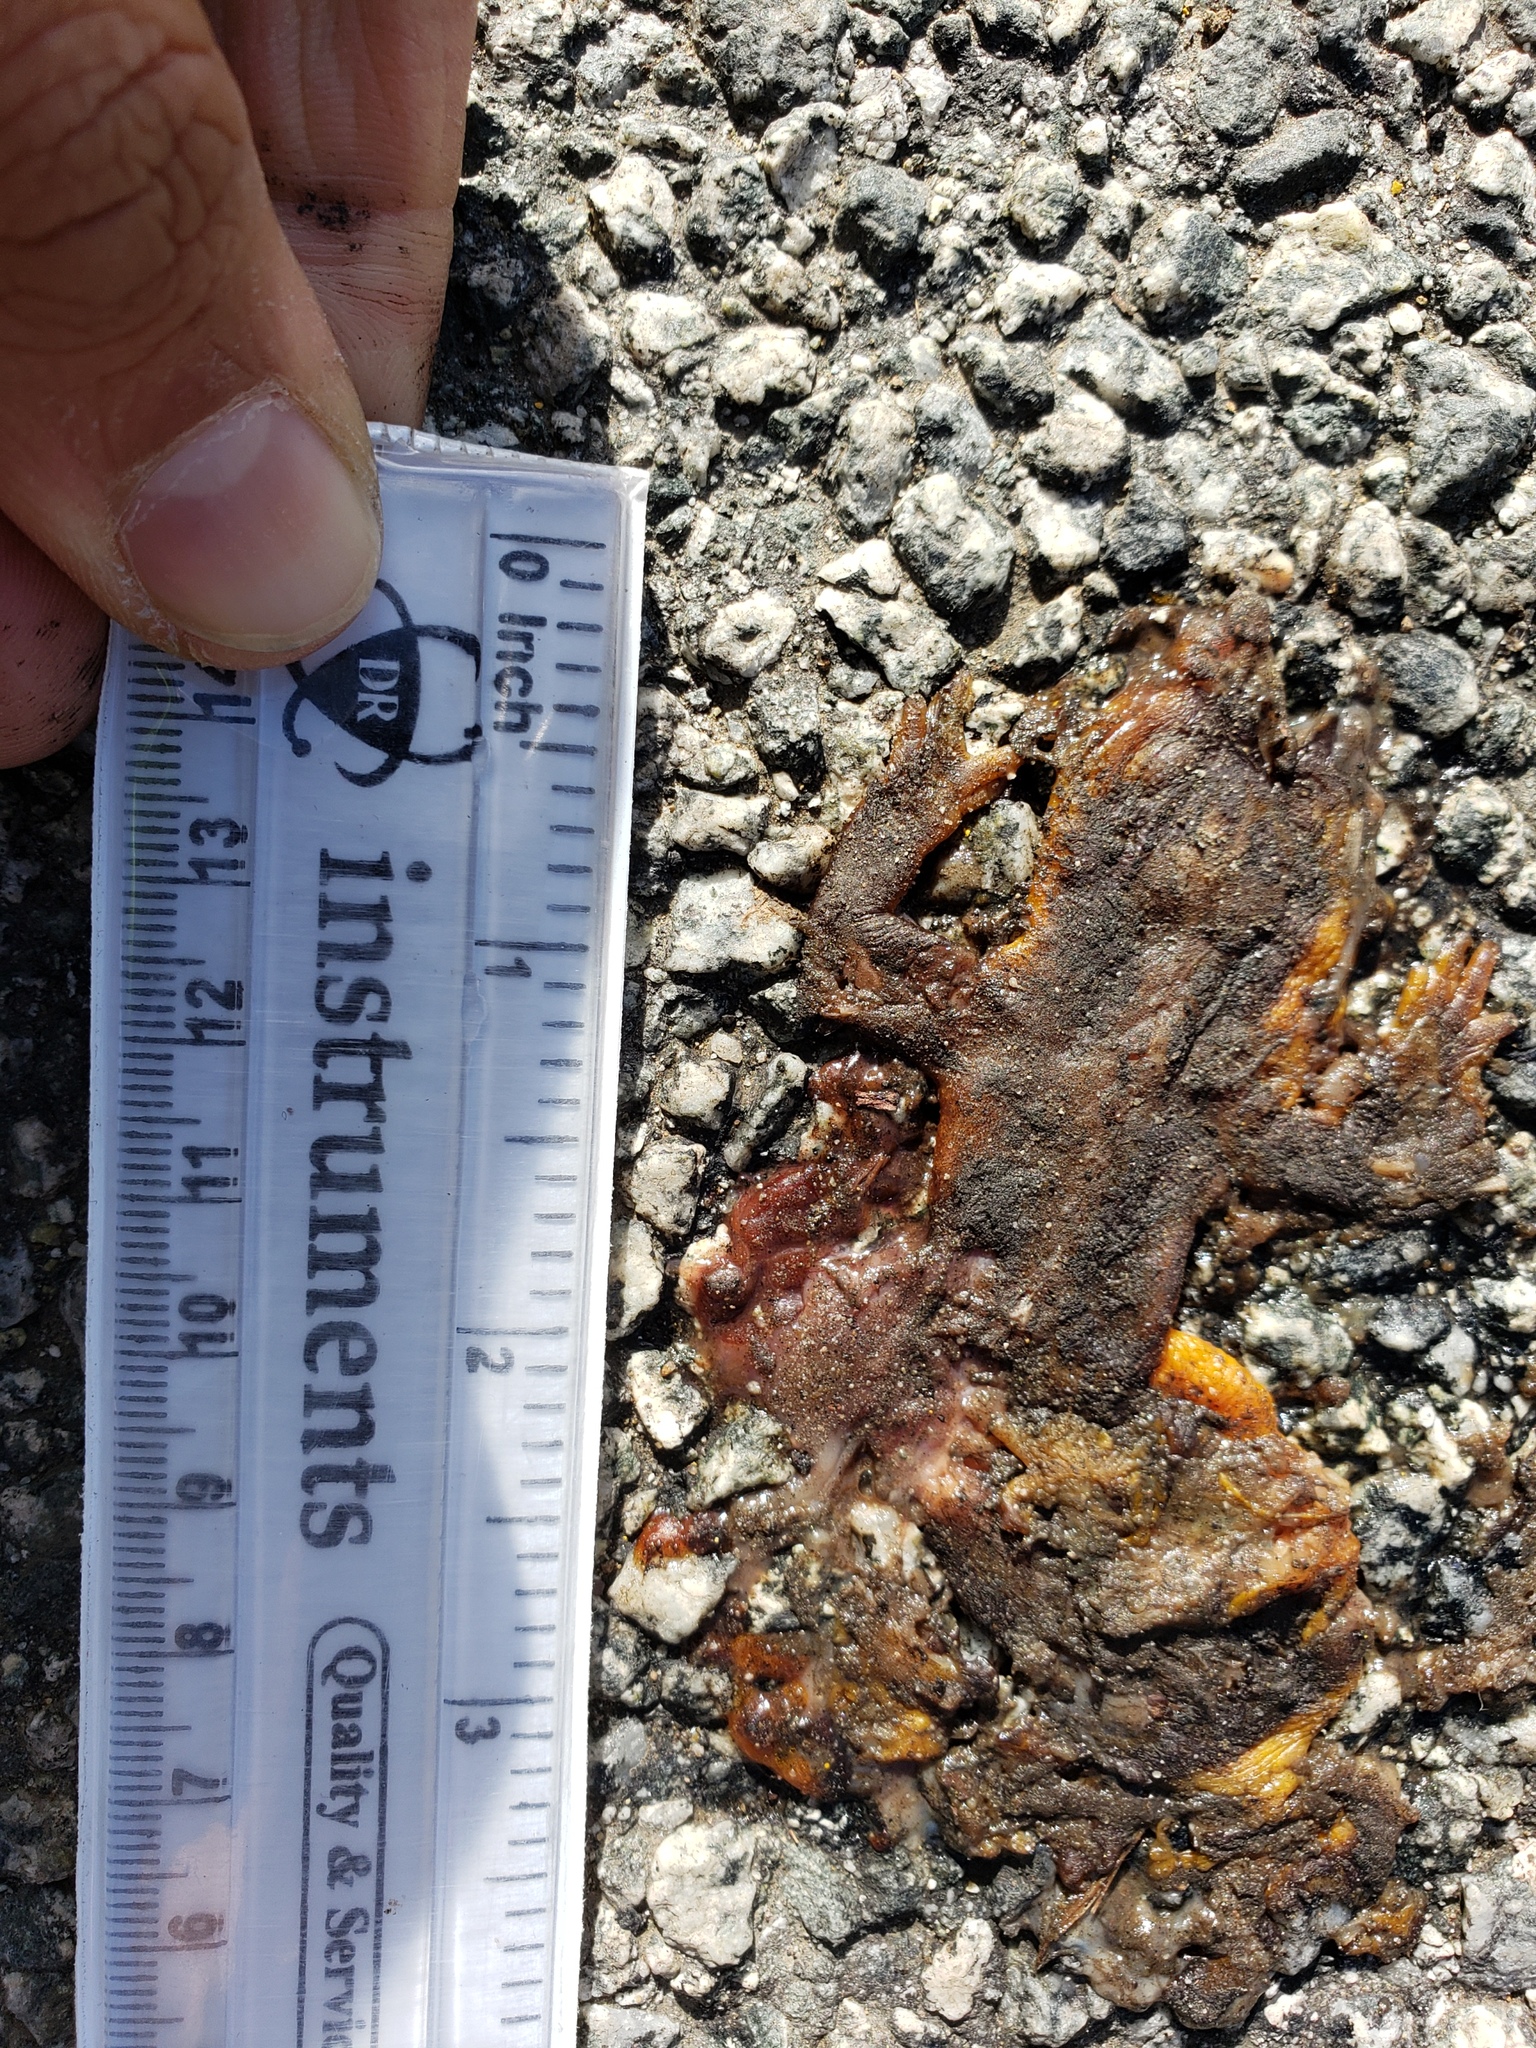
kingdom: Animalia
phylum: Chordata
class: Amphibia
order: Caudata
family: Salamandridae
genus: Taricha
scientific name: Taricha
